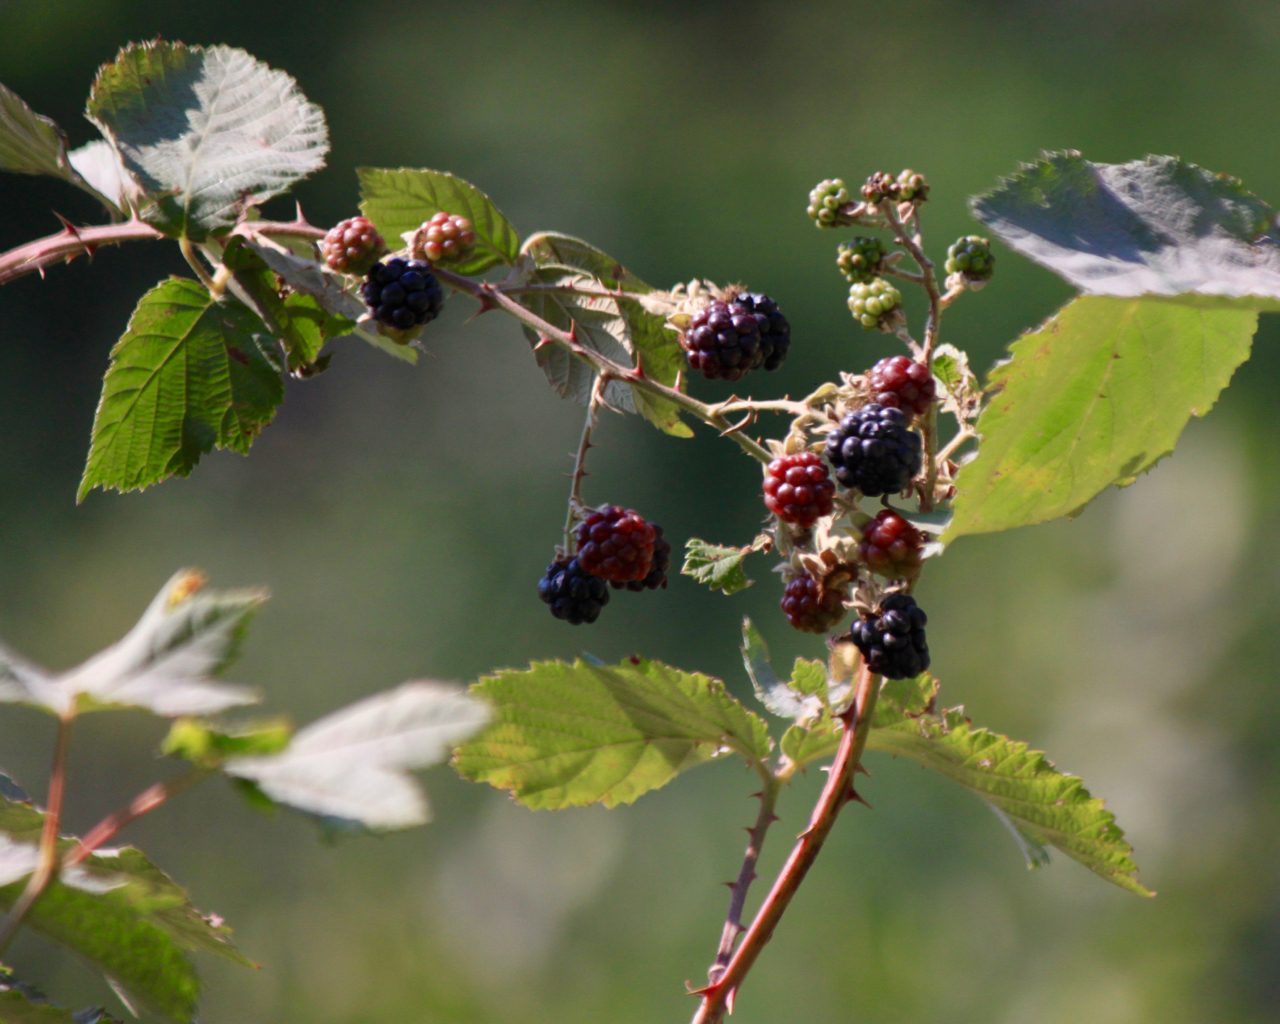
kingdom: Plantae
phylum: Tracheophyta
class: Magnoliopsida
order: Rosales
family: Rosaceae
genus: Rubus
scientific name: Rubus bifrons
